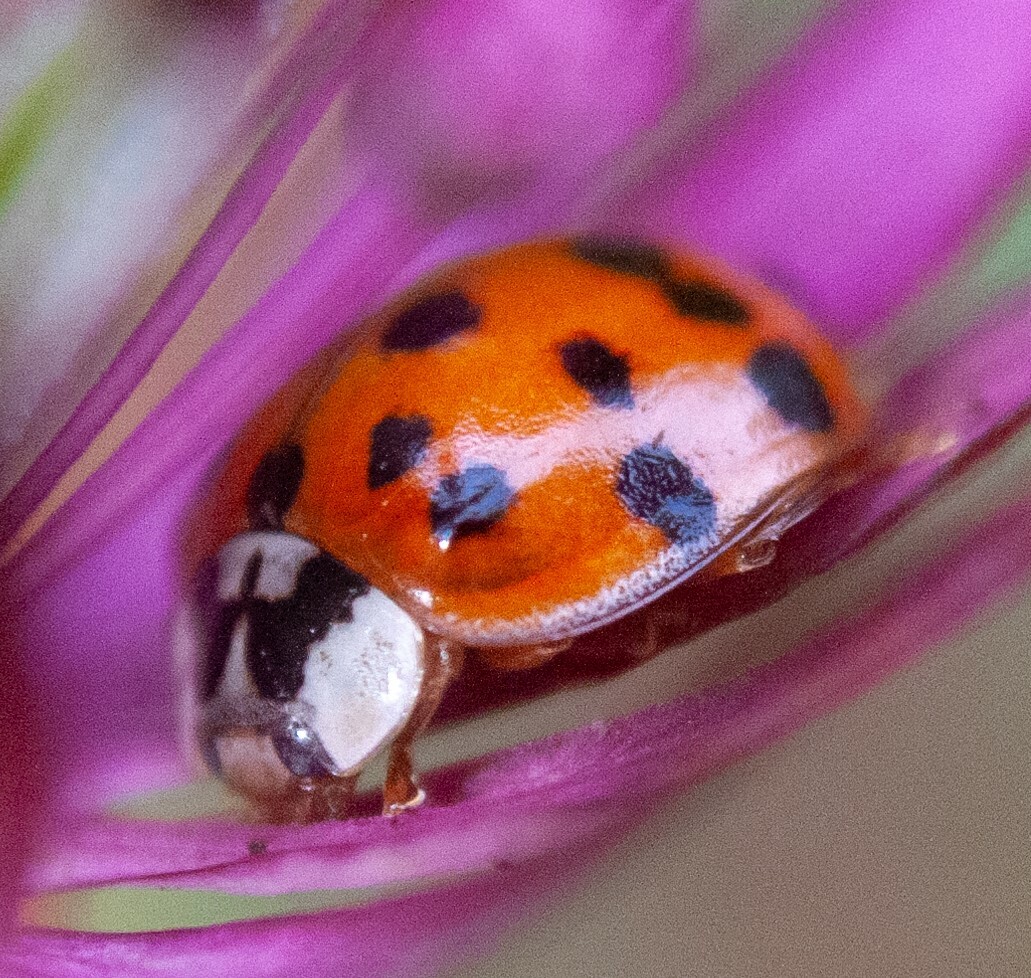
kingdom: Animalia
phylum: Arthropoda
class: Insecta
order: Coleoptera
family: Coccinellidae
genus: Harmonia
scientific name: Harmonia axyridis
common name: Harlequin ladybird
